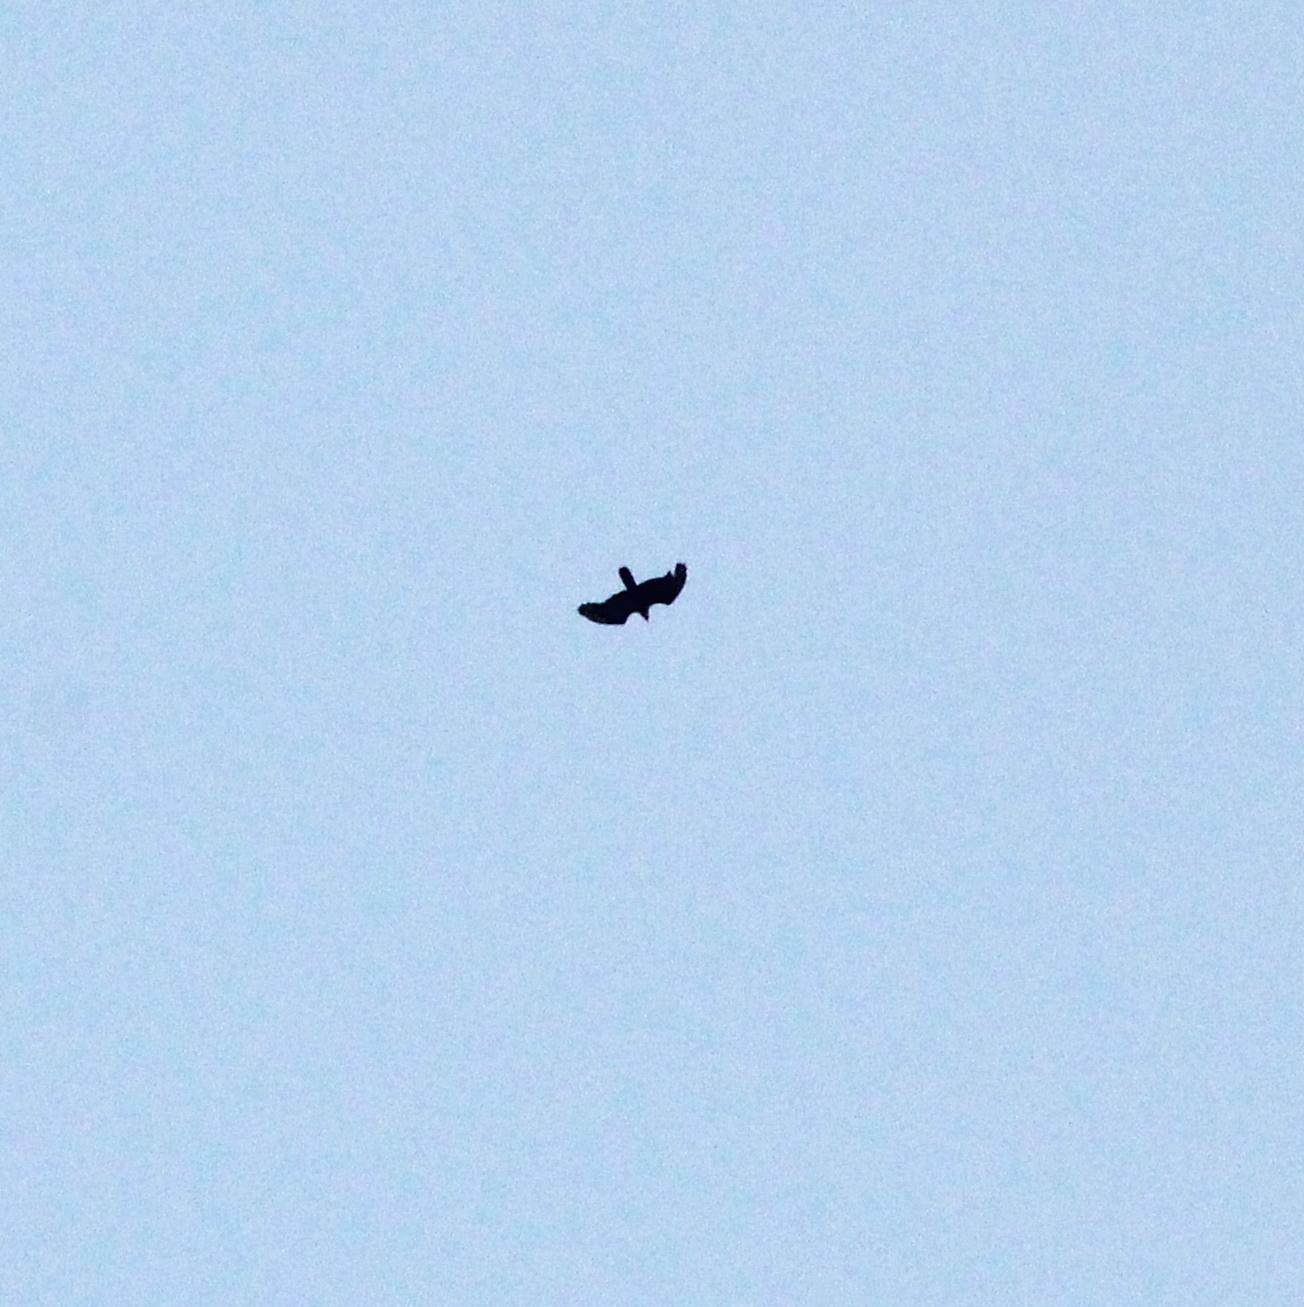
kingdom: Animalia
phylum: Chordata
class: Aves
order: Accipitriformes
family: Accipitridae
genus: Pernis
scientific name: Pernis apivorus
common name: European honey buzzard
